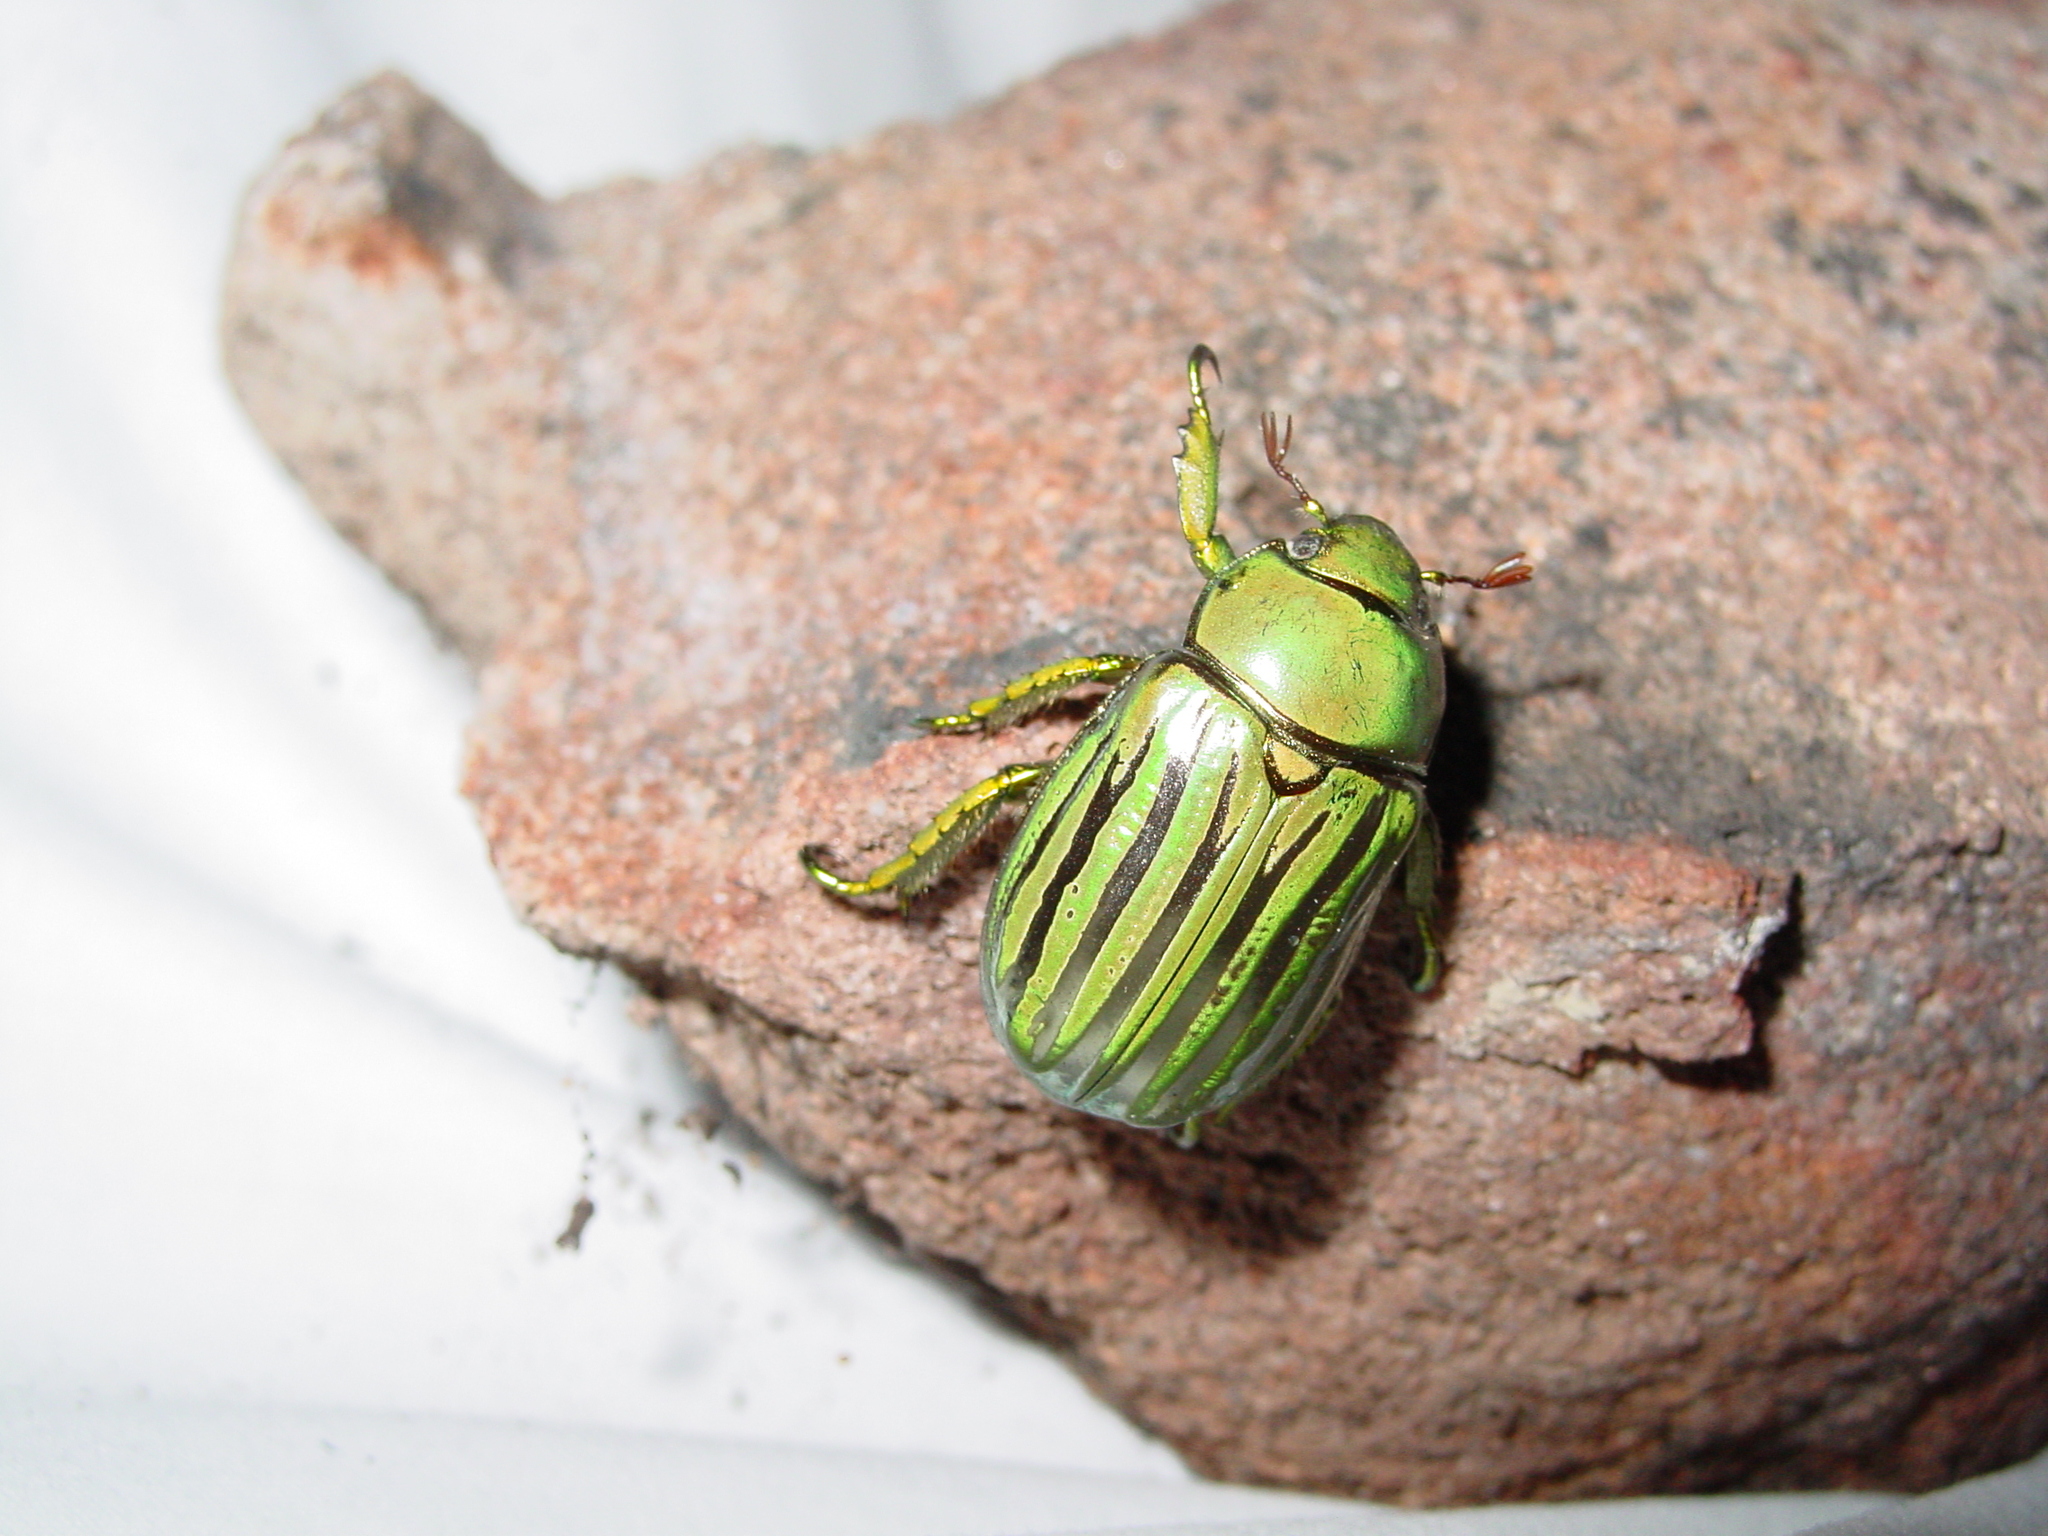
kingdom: Animalia
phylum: Arthropoda
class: Insecta
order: Coleoptera
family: Scarabaeidae
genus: Chrysina
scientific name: Chrysina gloriosa
